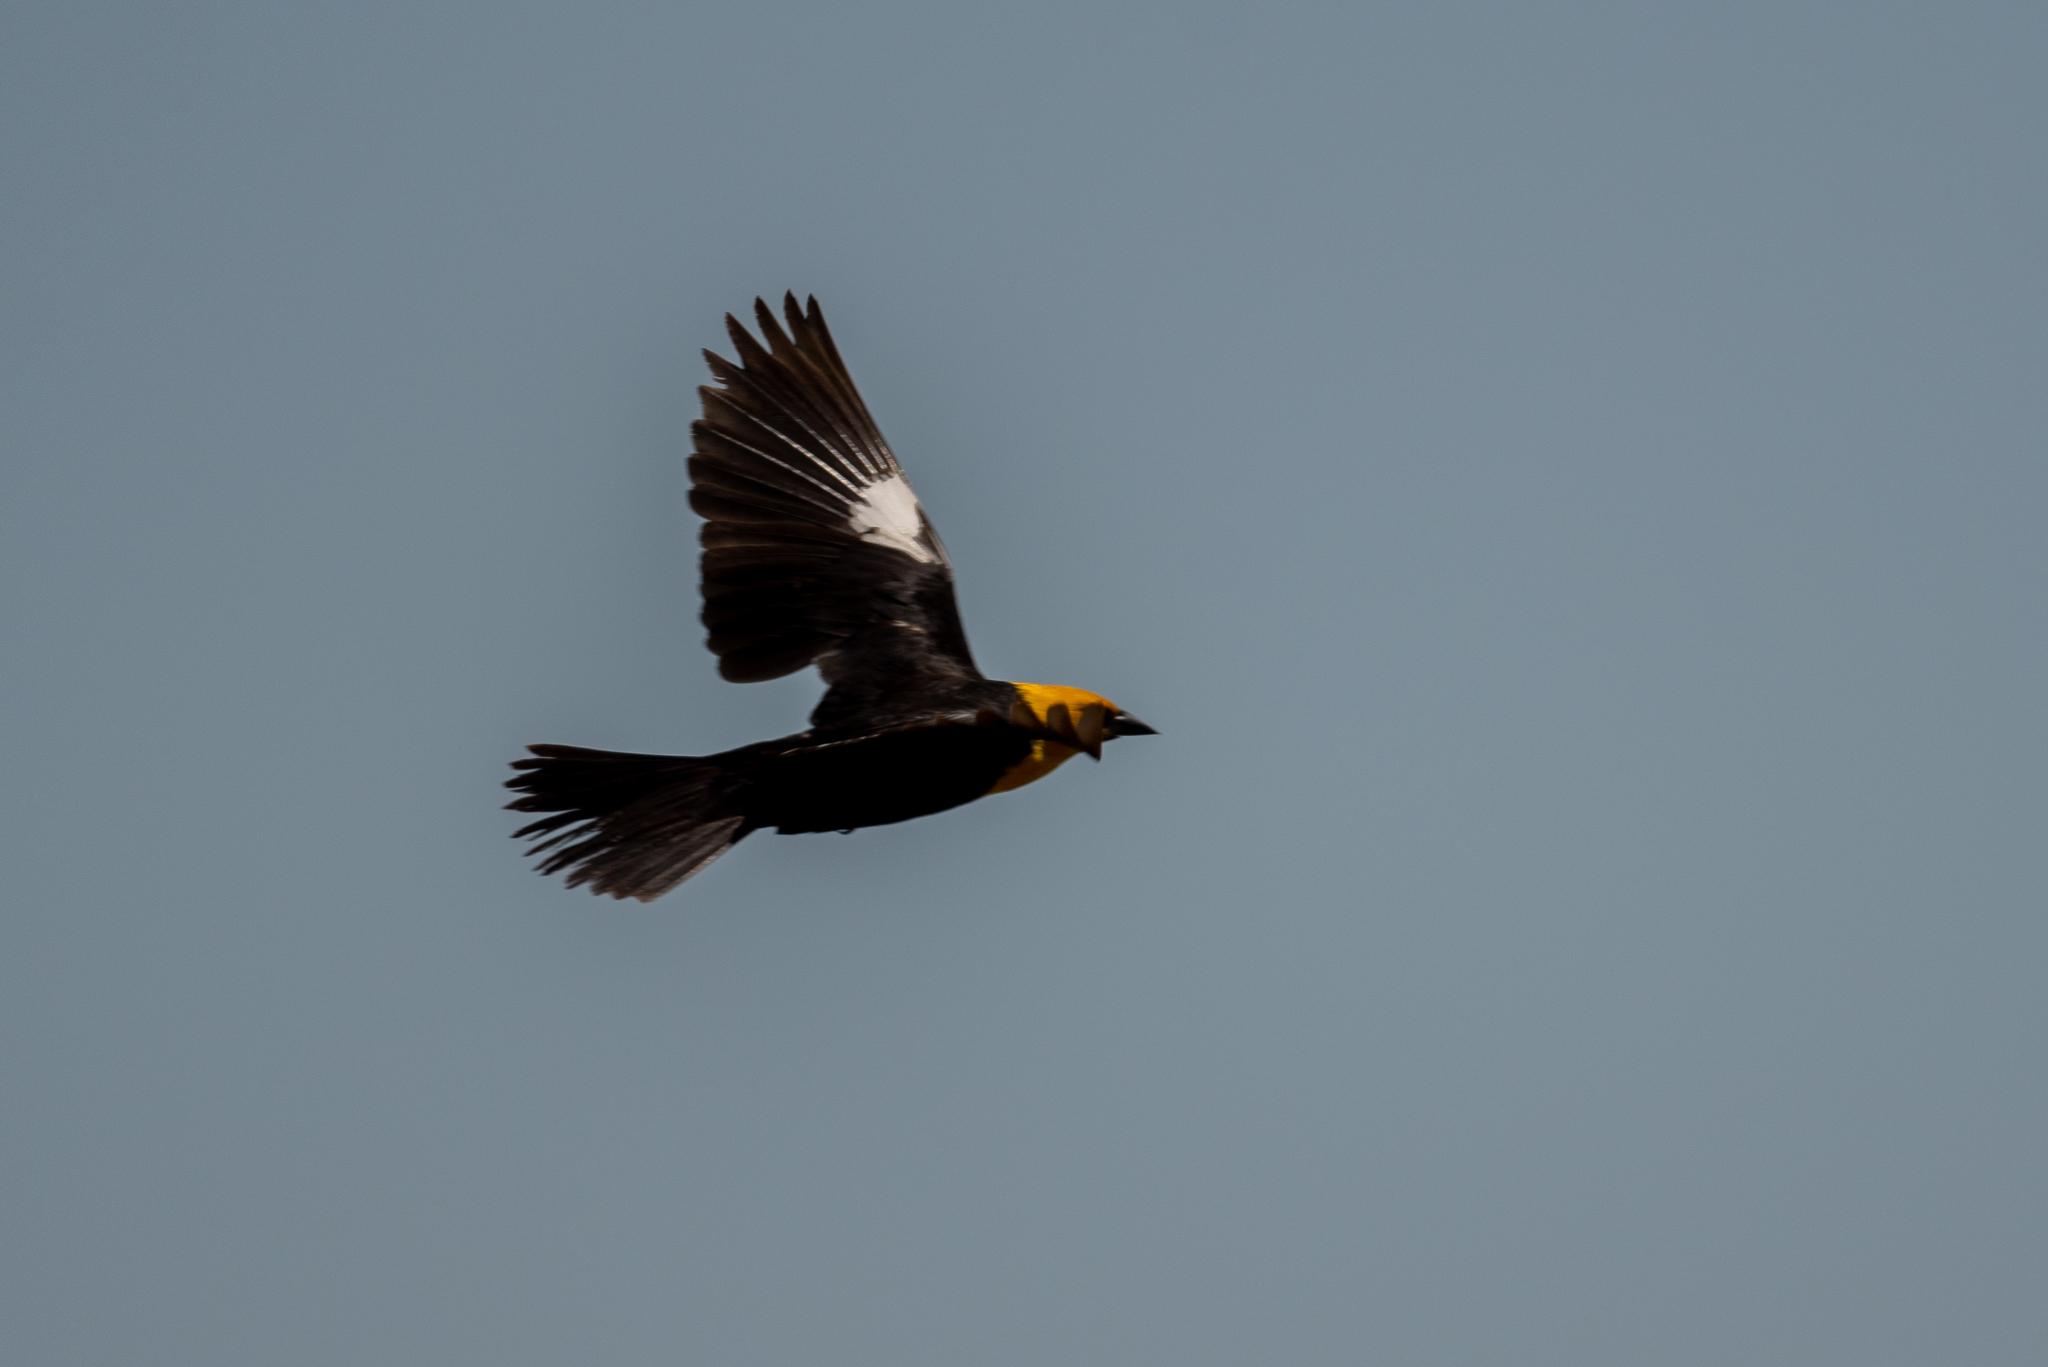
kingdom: Animalia
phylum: Chordata
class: Aves
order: Passeriformes
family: Icteridae
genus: Xanthocephalus
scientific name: Xanthocephalus xanthocephalus
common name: Yellow-headed blackbird
